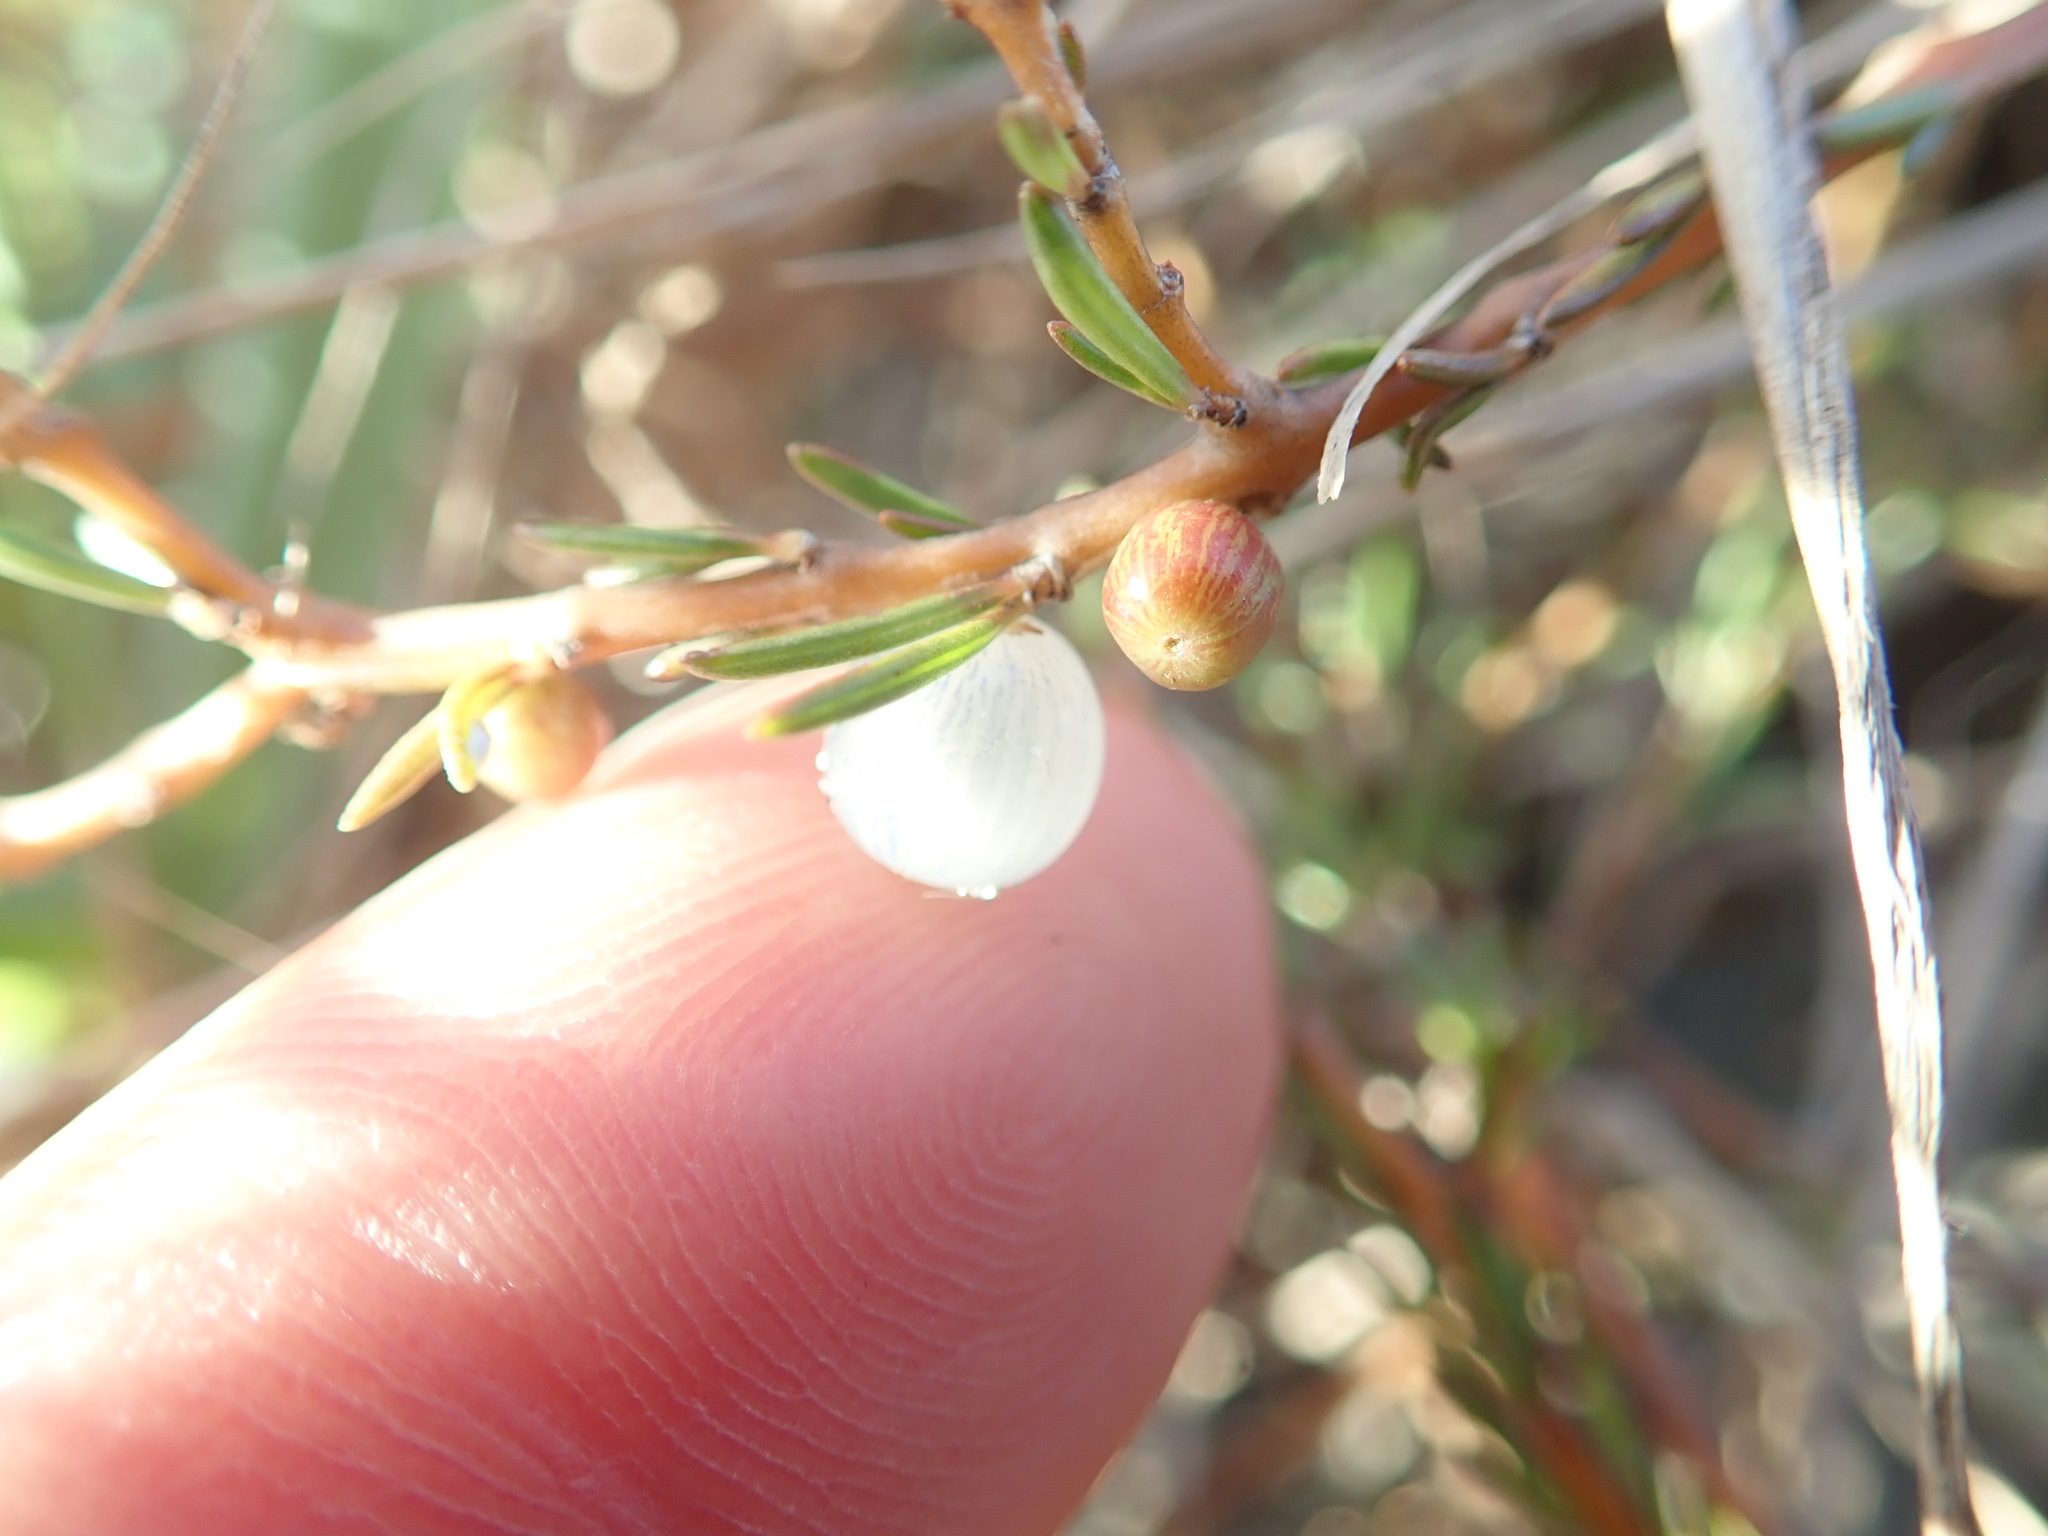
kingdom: Plantae
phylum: Tracheophyta
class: Magnoliopsida
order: Gentianales
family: Rubiaceae
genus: Coprosma
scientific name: Coprosma acerosa
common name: Sand coprosma
